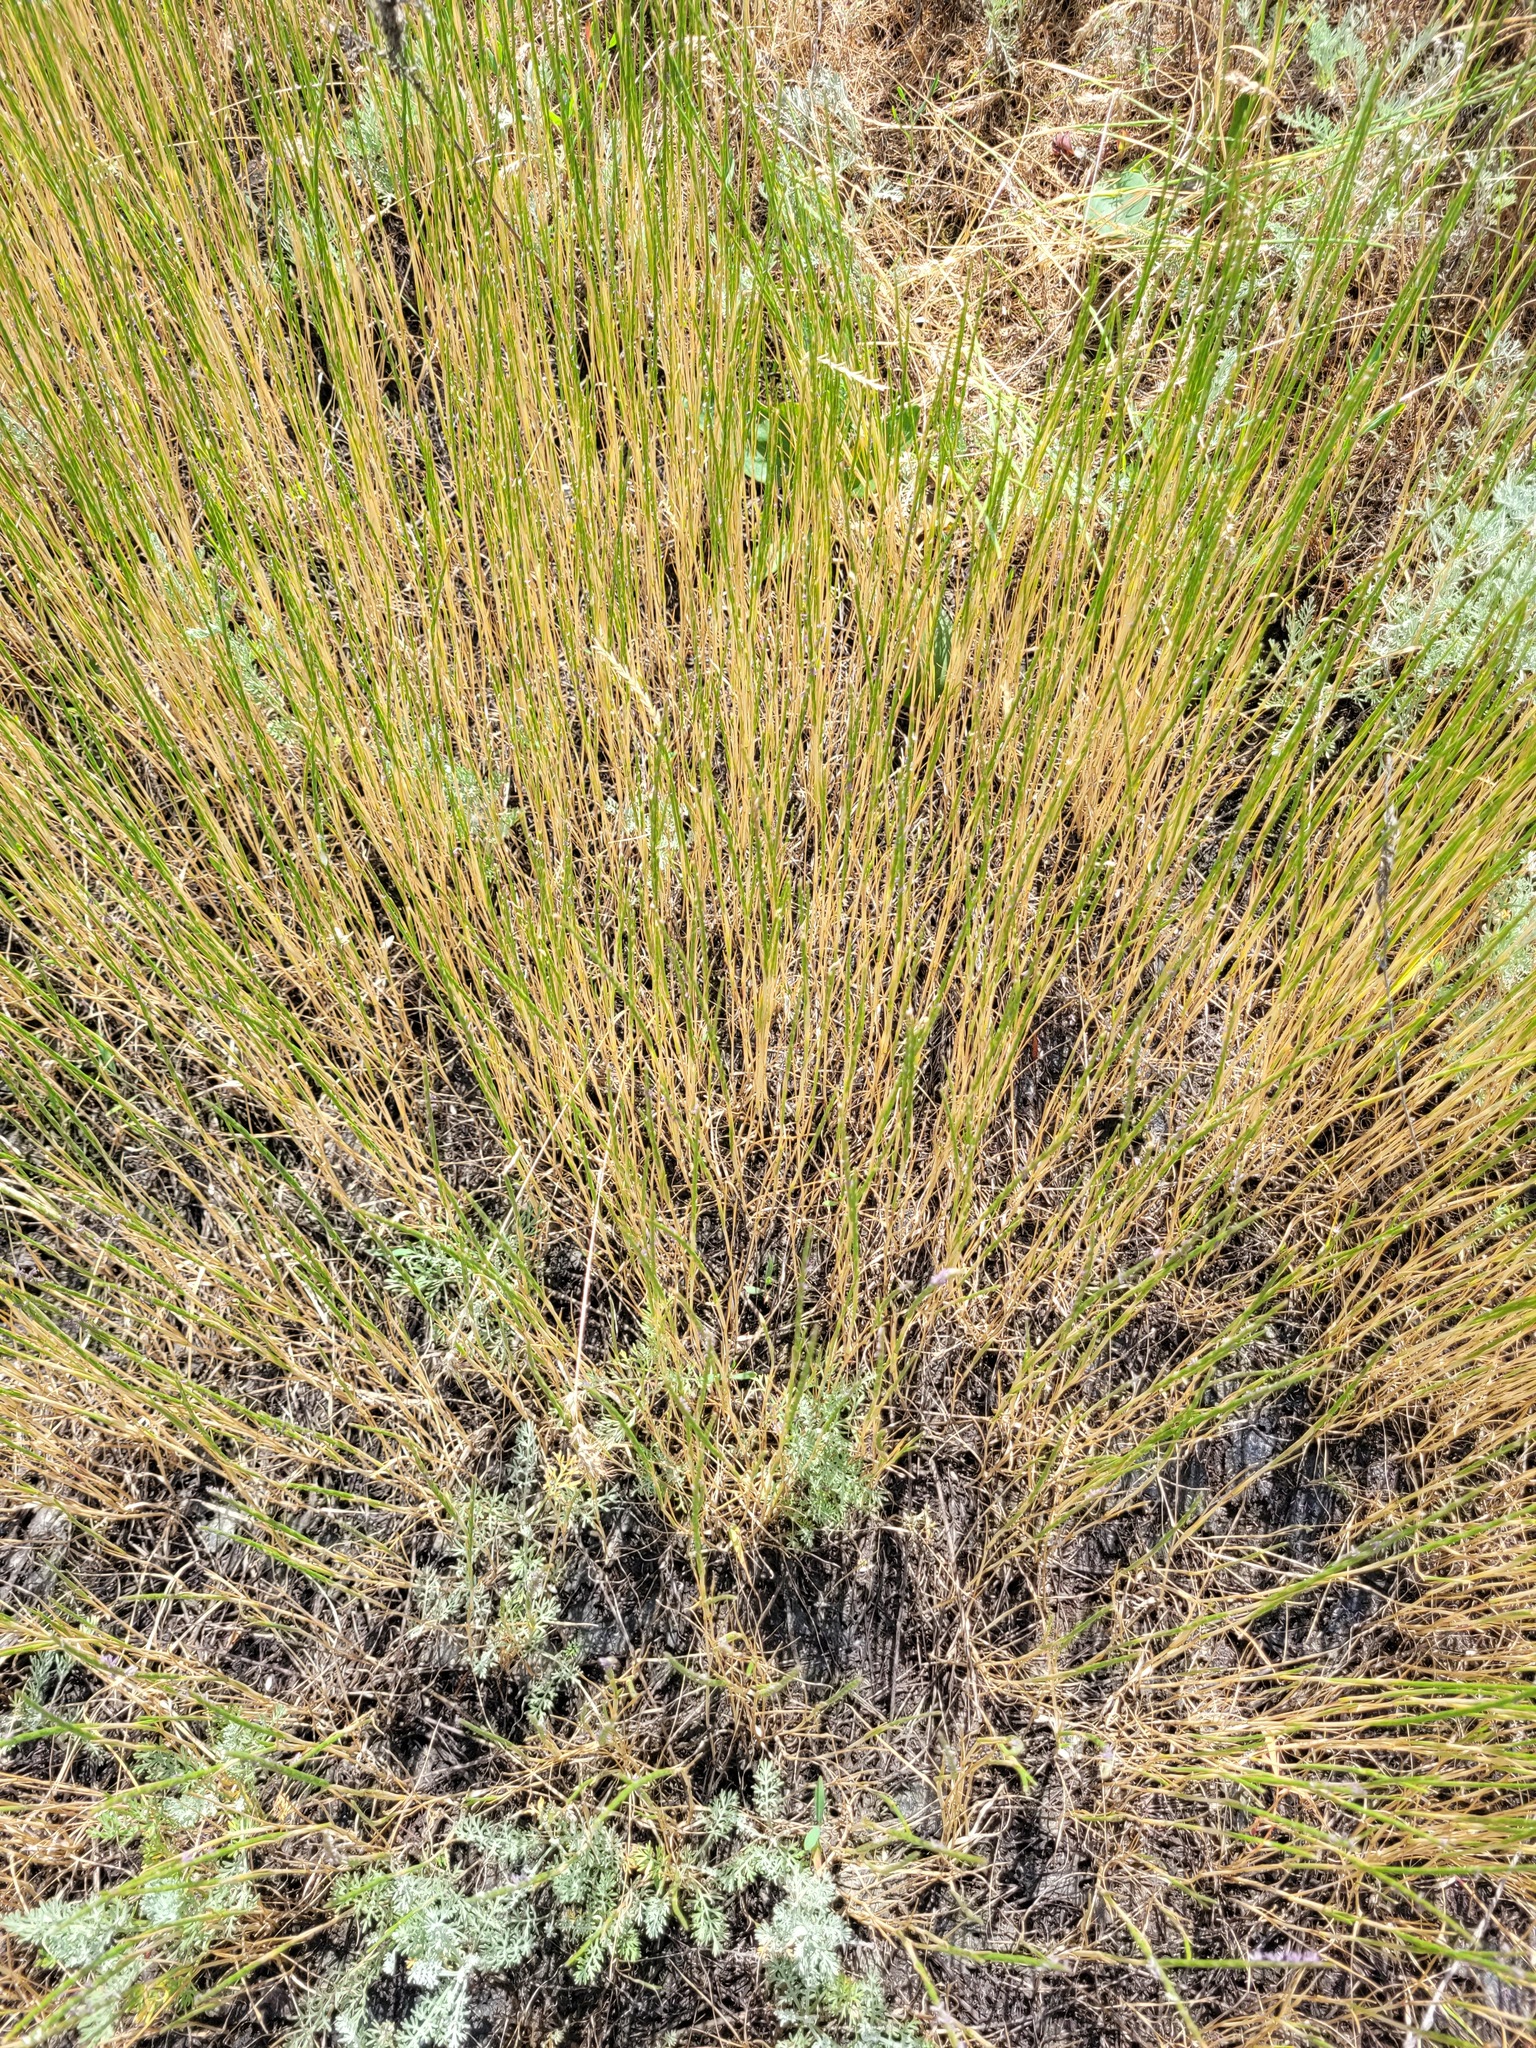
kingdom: Plantae
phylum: Tracheophyta
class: Liliopsida
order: Poales
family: Poaceae
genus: Pholiurus
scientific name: Pholiurus pannonicus
